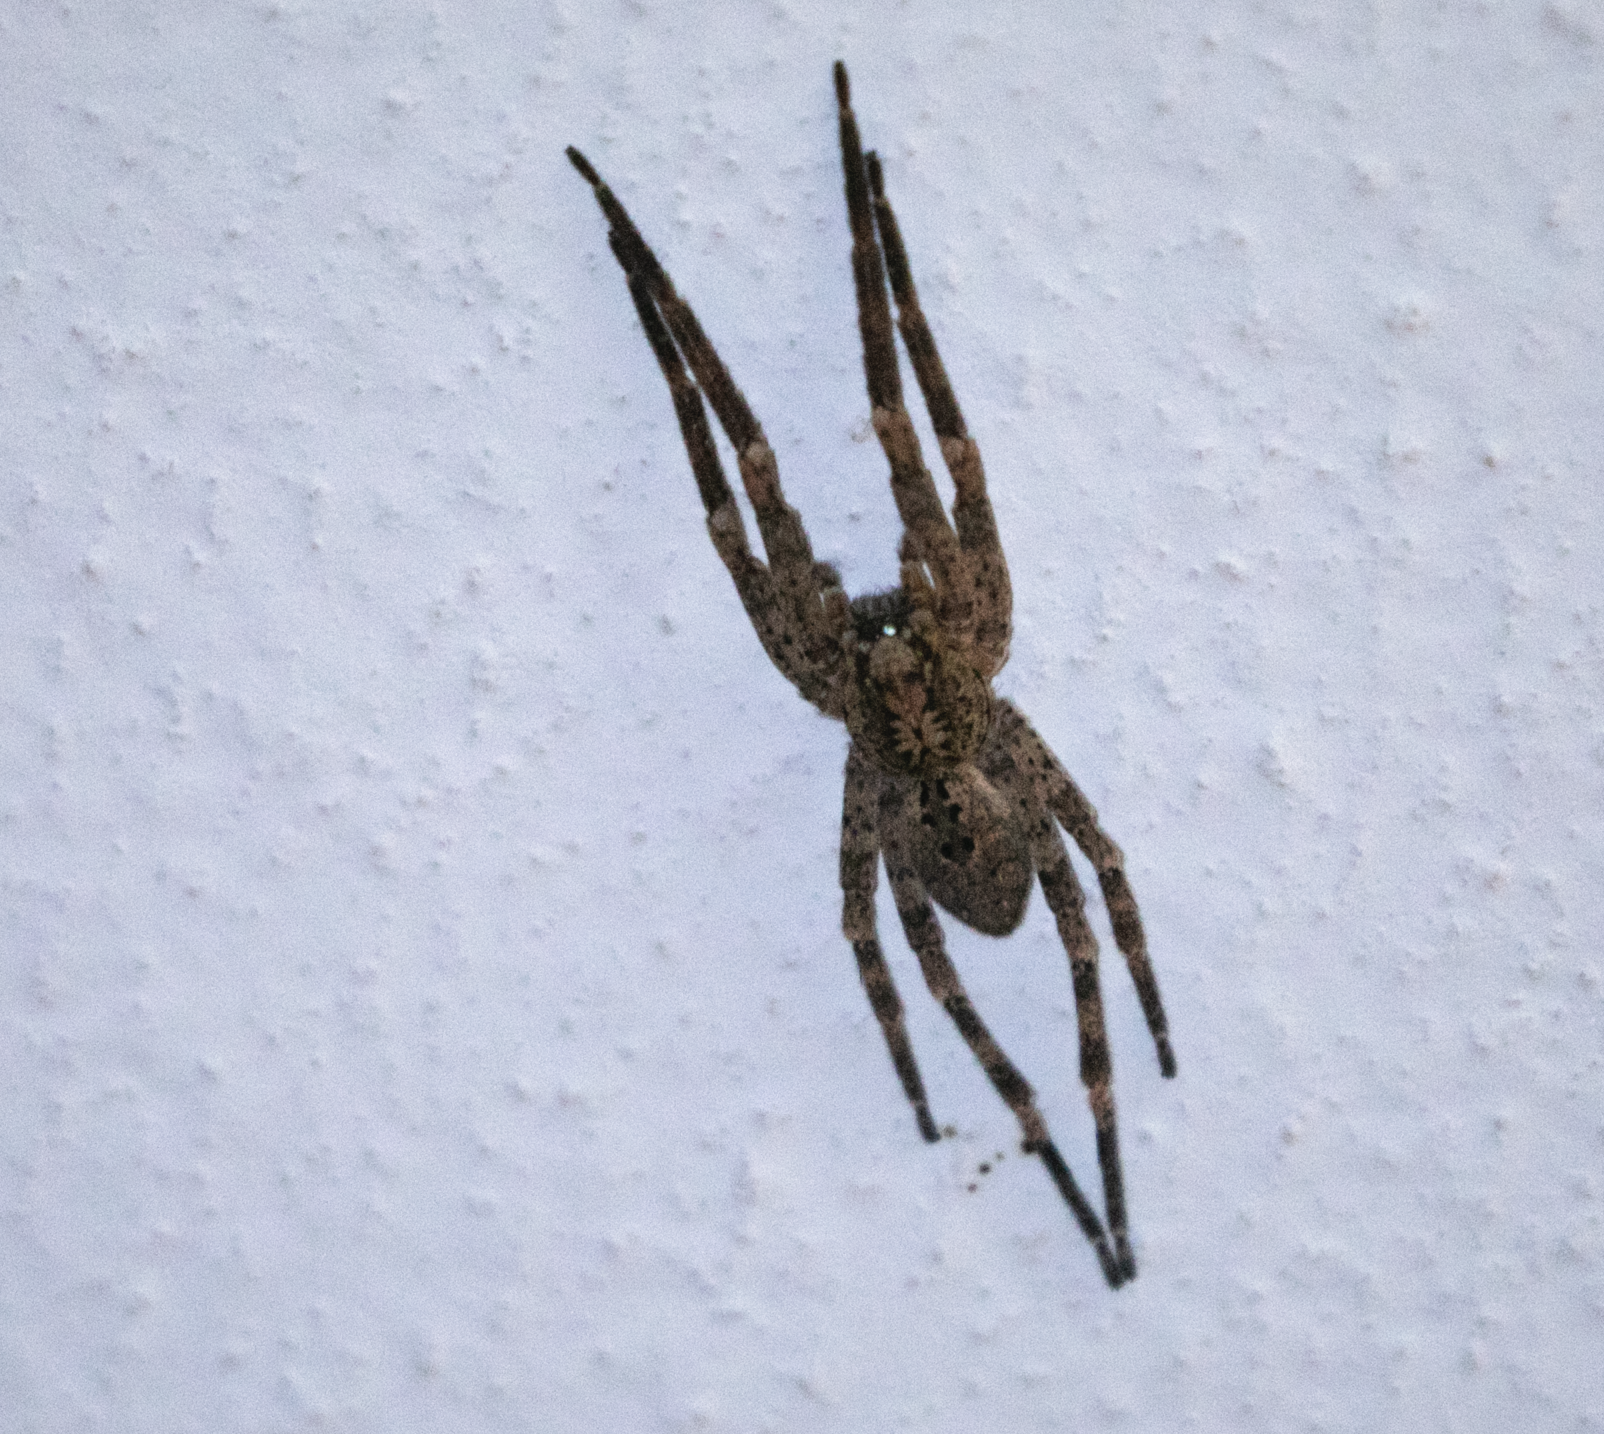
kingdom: Animalia
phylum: Arthropoda
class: Arachnida
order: Araneae
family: Zoropsidae
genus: Zoropsis
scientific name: Zoropsis spinimana
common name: Zoropsid spider
